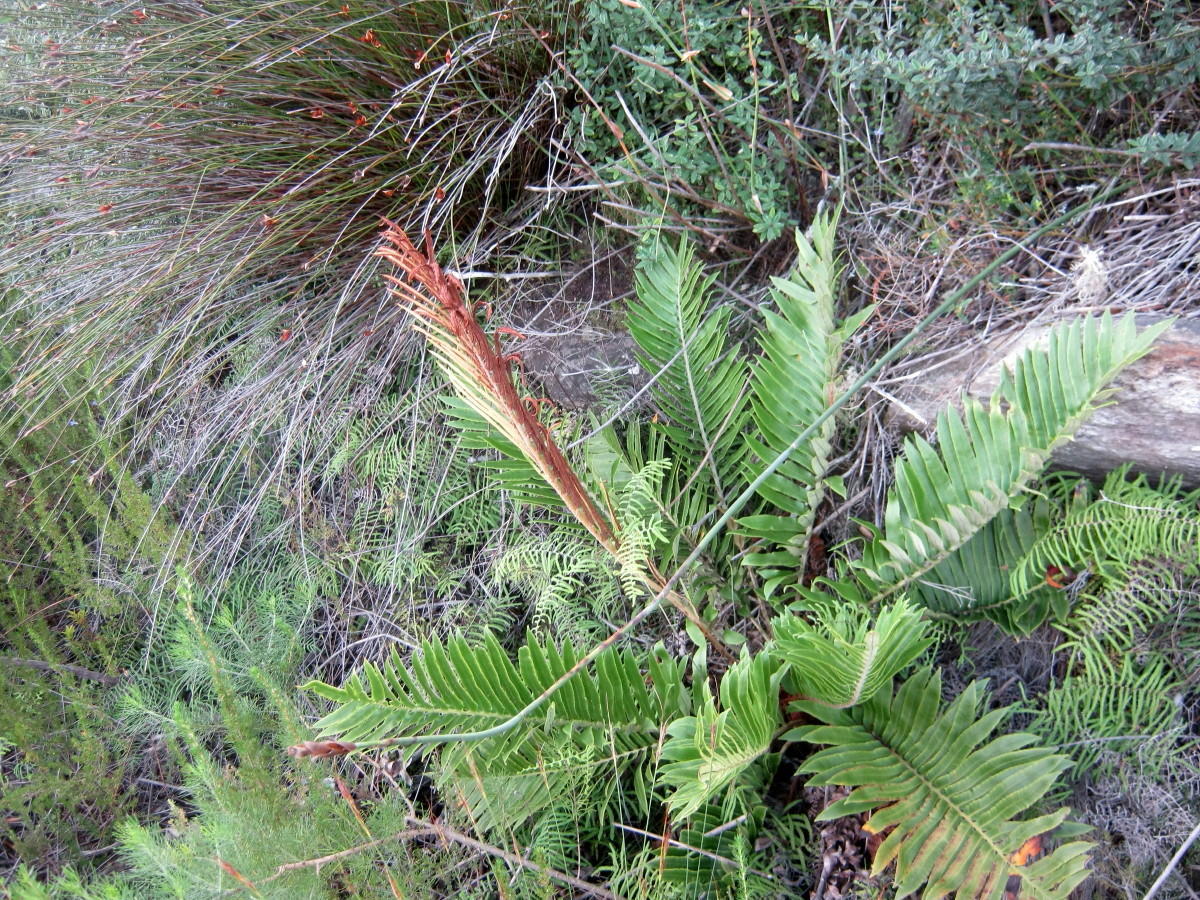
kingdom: Plantae
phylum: Tracheophyta
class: Polypodiopsida
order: Polypodiales
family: Blechnaceae
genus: Lomariocycas
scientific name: Lomariocycas tabularis
